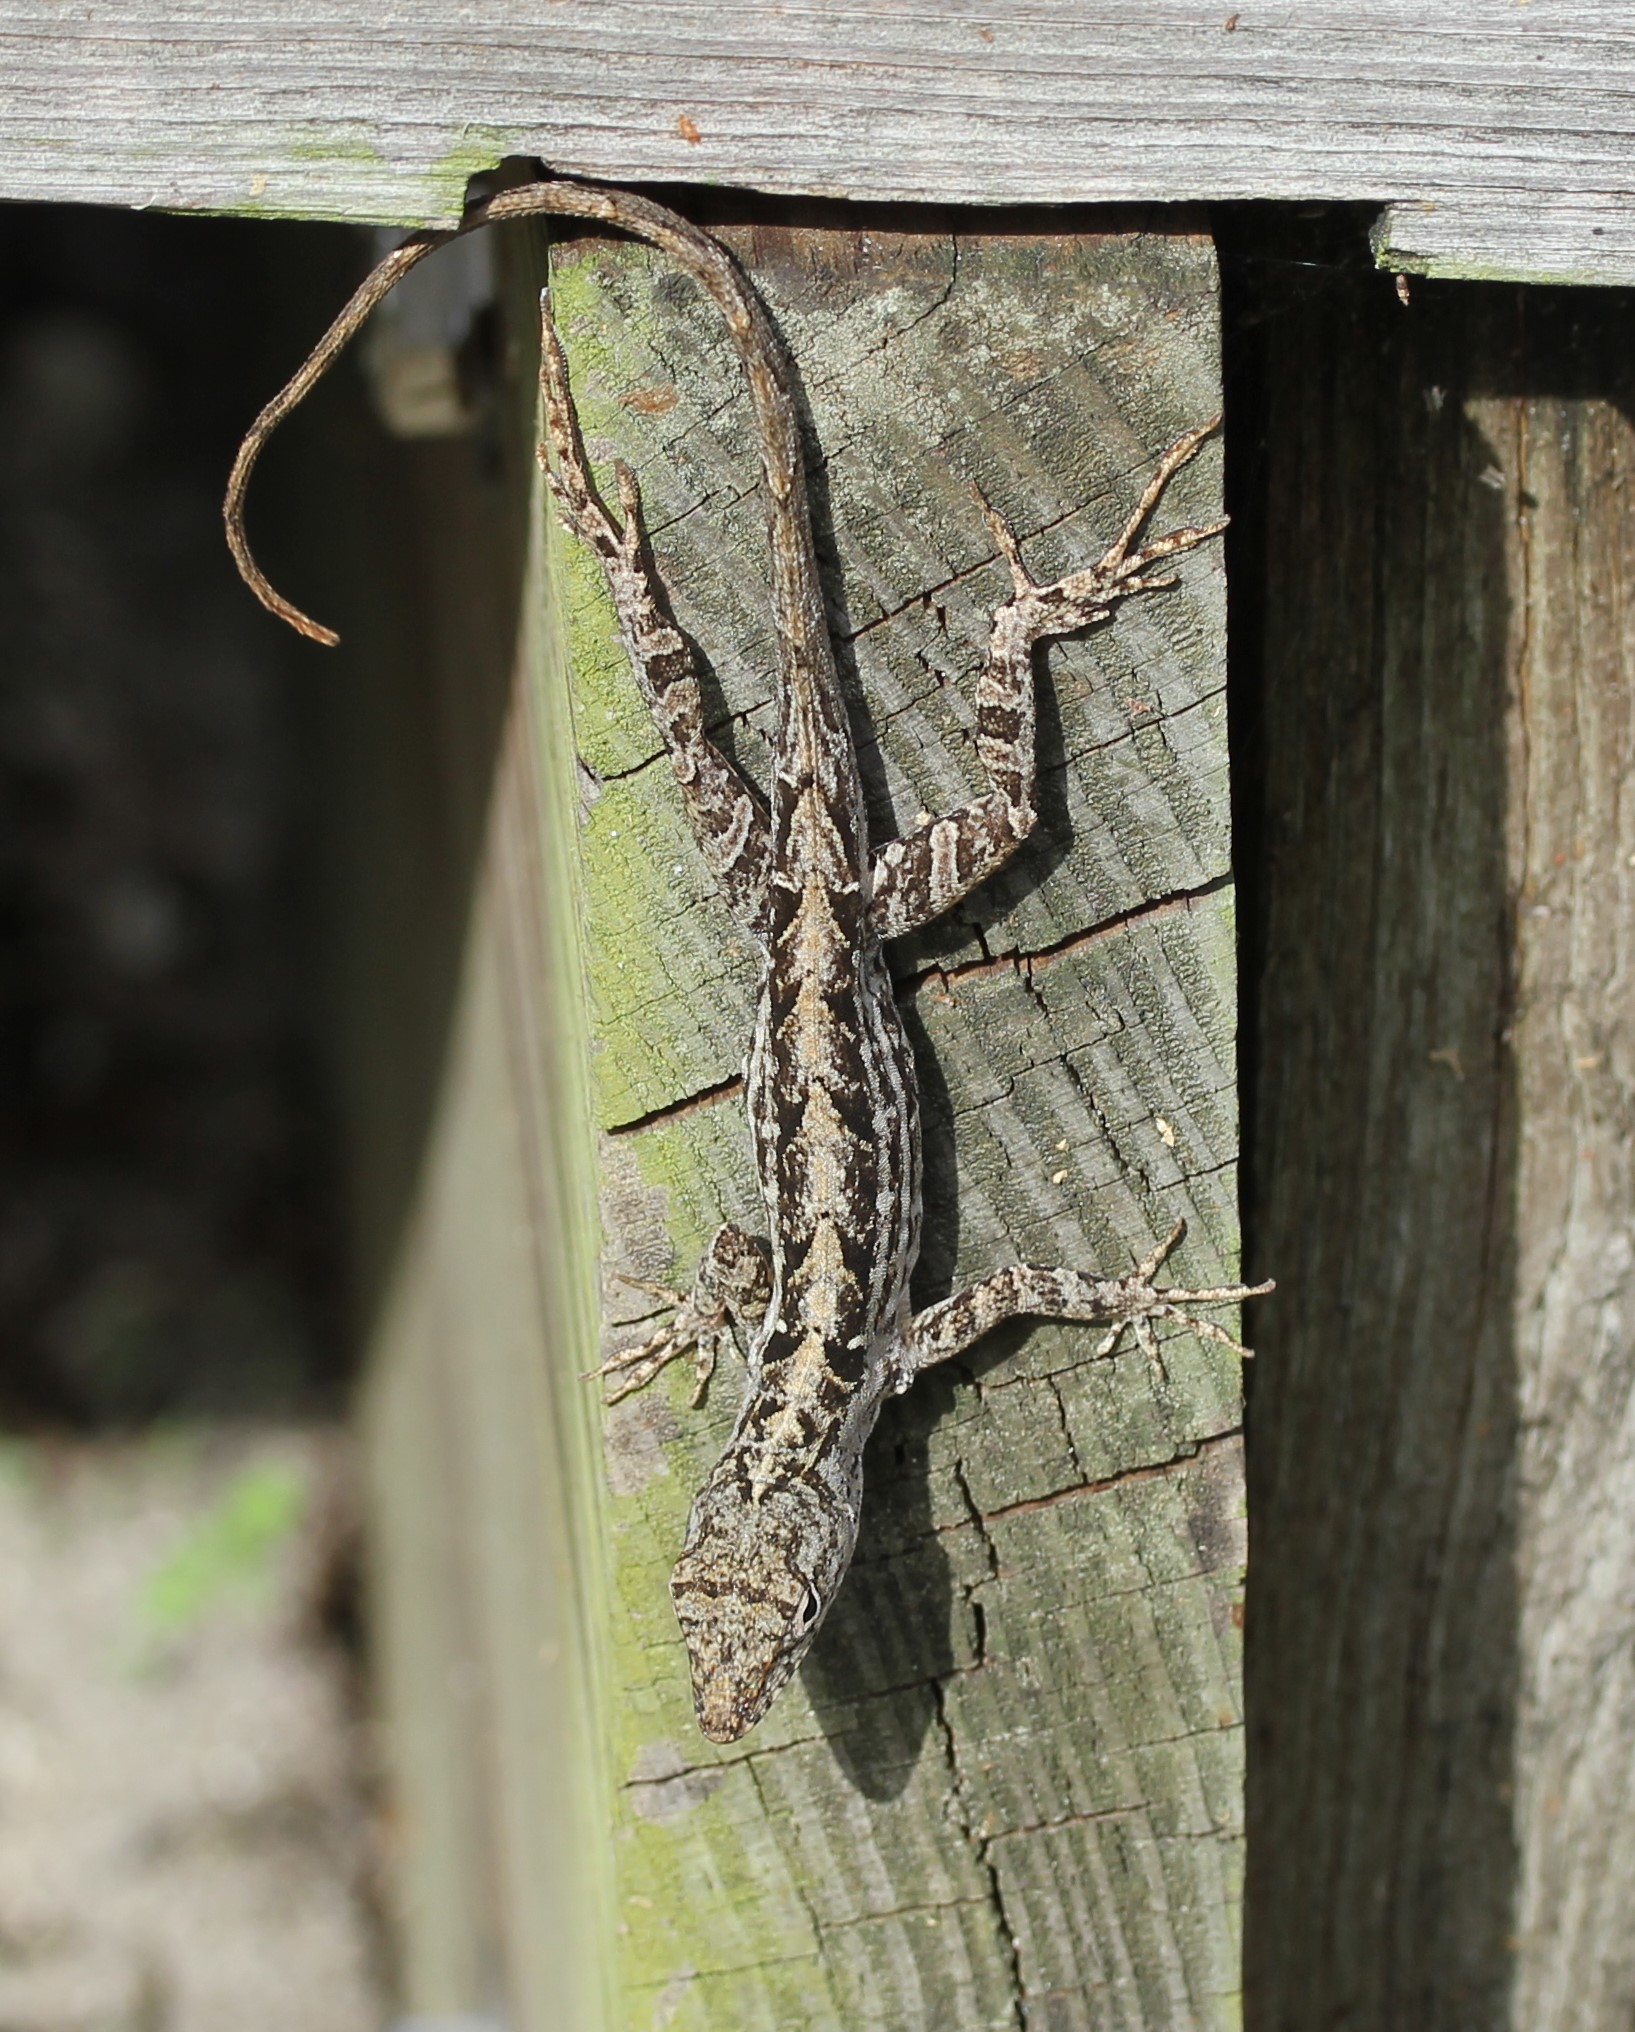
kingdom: Animalia
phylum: Chordata
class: Squamata
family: Dactyloidae
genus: Anolis
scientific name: Anolis sagrei
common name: Brown anole
